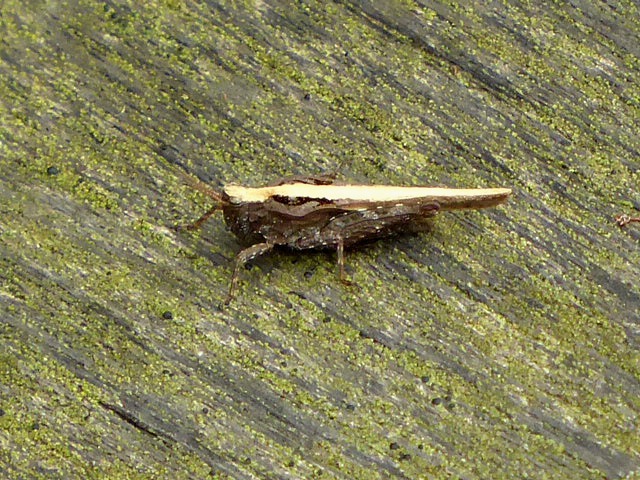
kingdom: Animalia
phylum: Arthropoda
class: Insecta
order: Orthoptera
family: Tetrigidae
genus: Tetrix
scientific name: Tetrix subulata
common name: Slender ground-hopper
